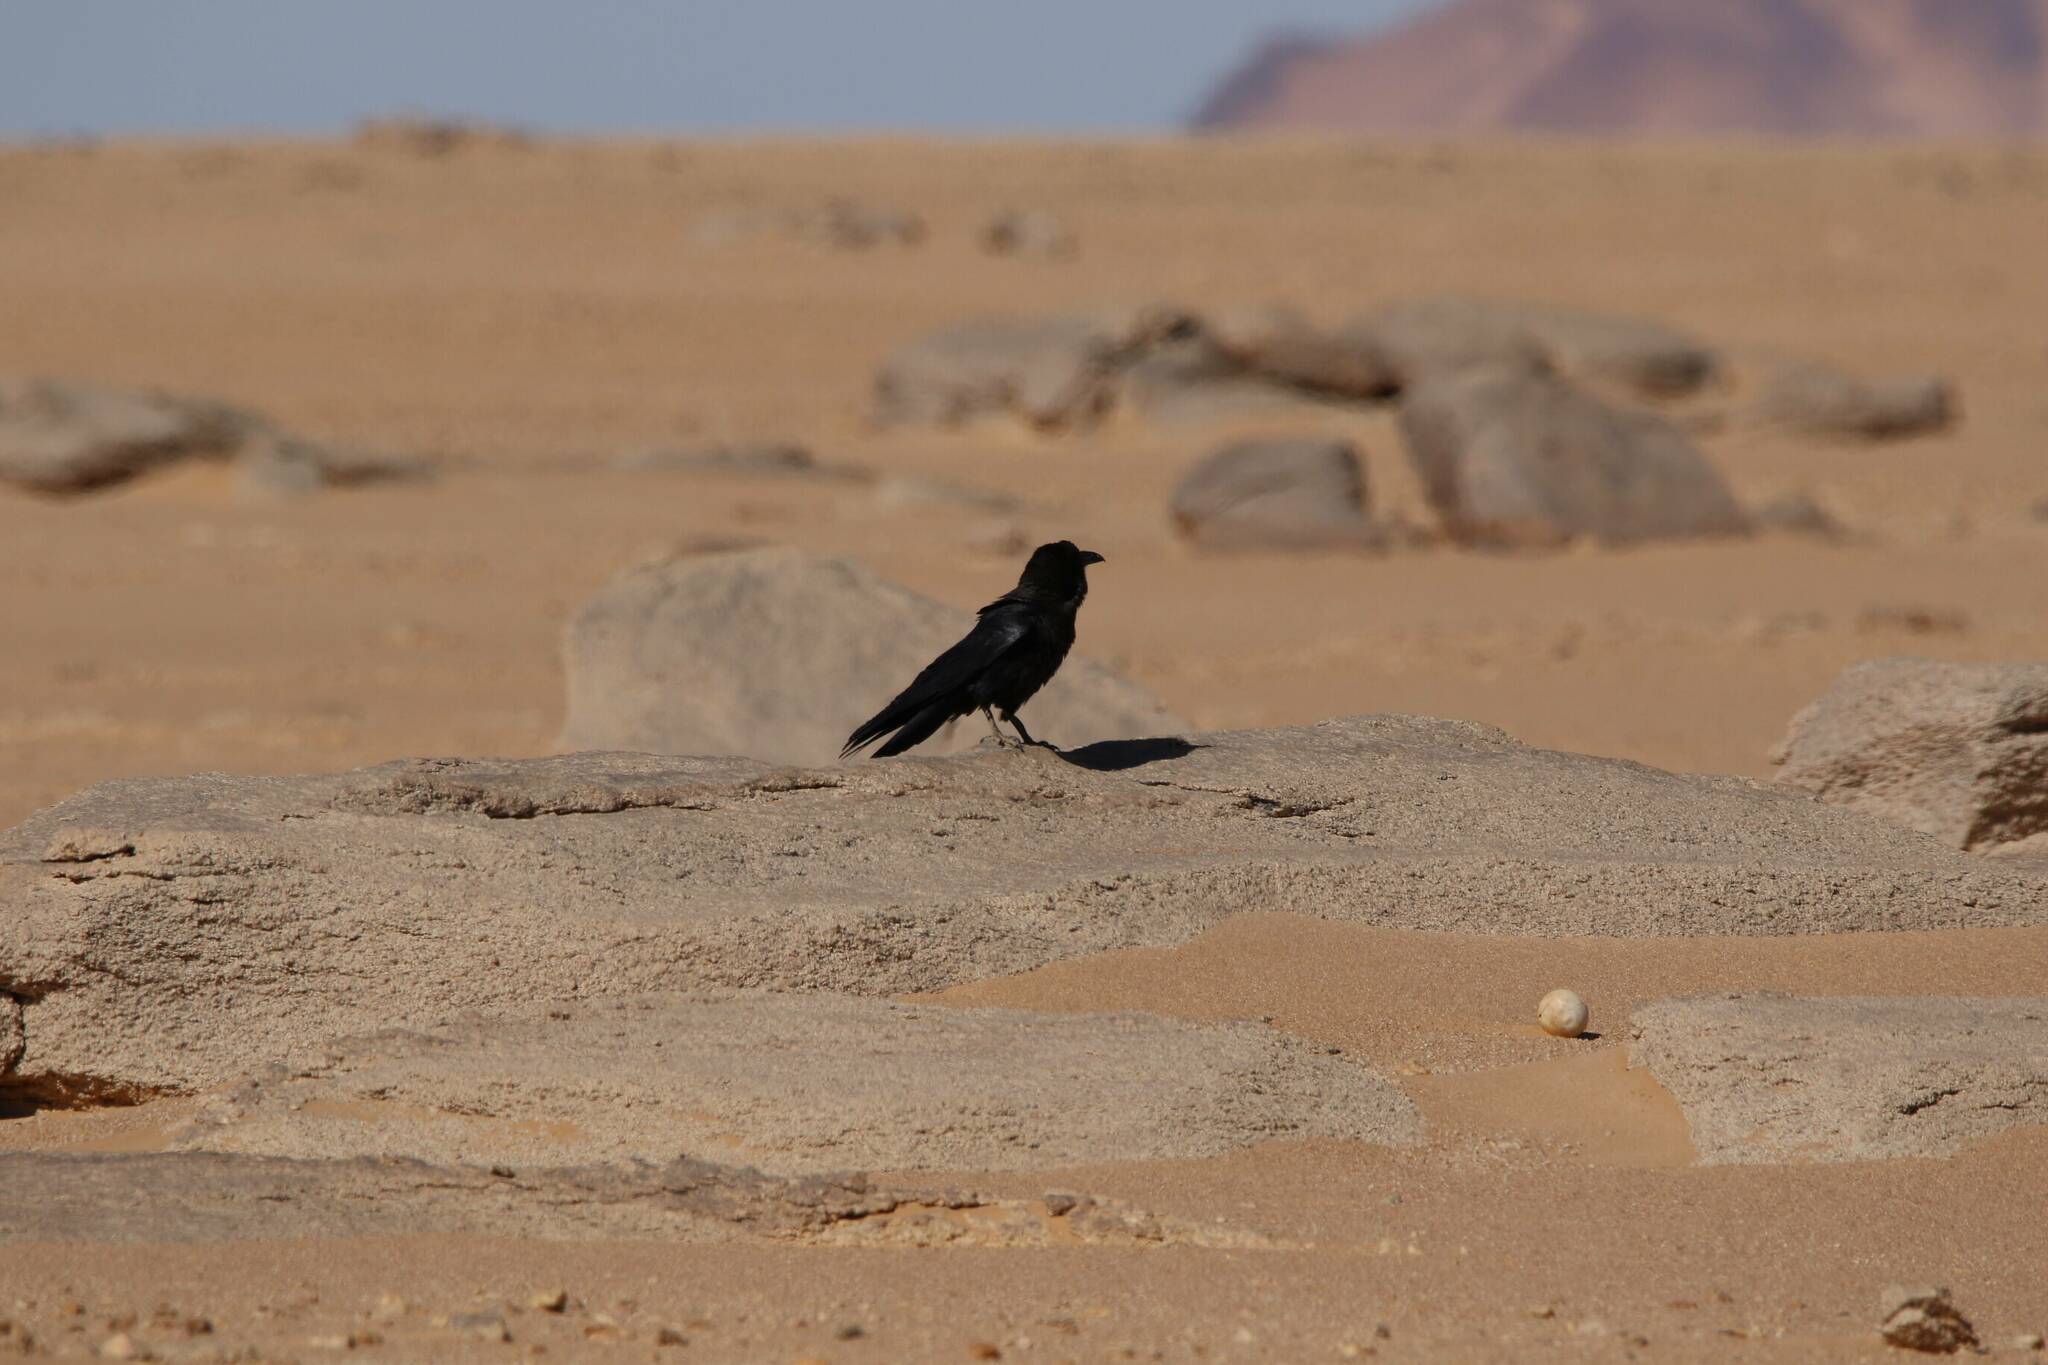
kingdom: Animalia
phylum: Chordata
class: Aves
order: Passeriformes
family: Corvidae
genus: Corvus
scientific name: Corvus ruficollis
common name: Brown-necked raven
